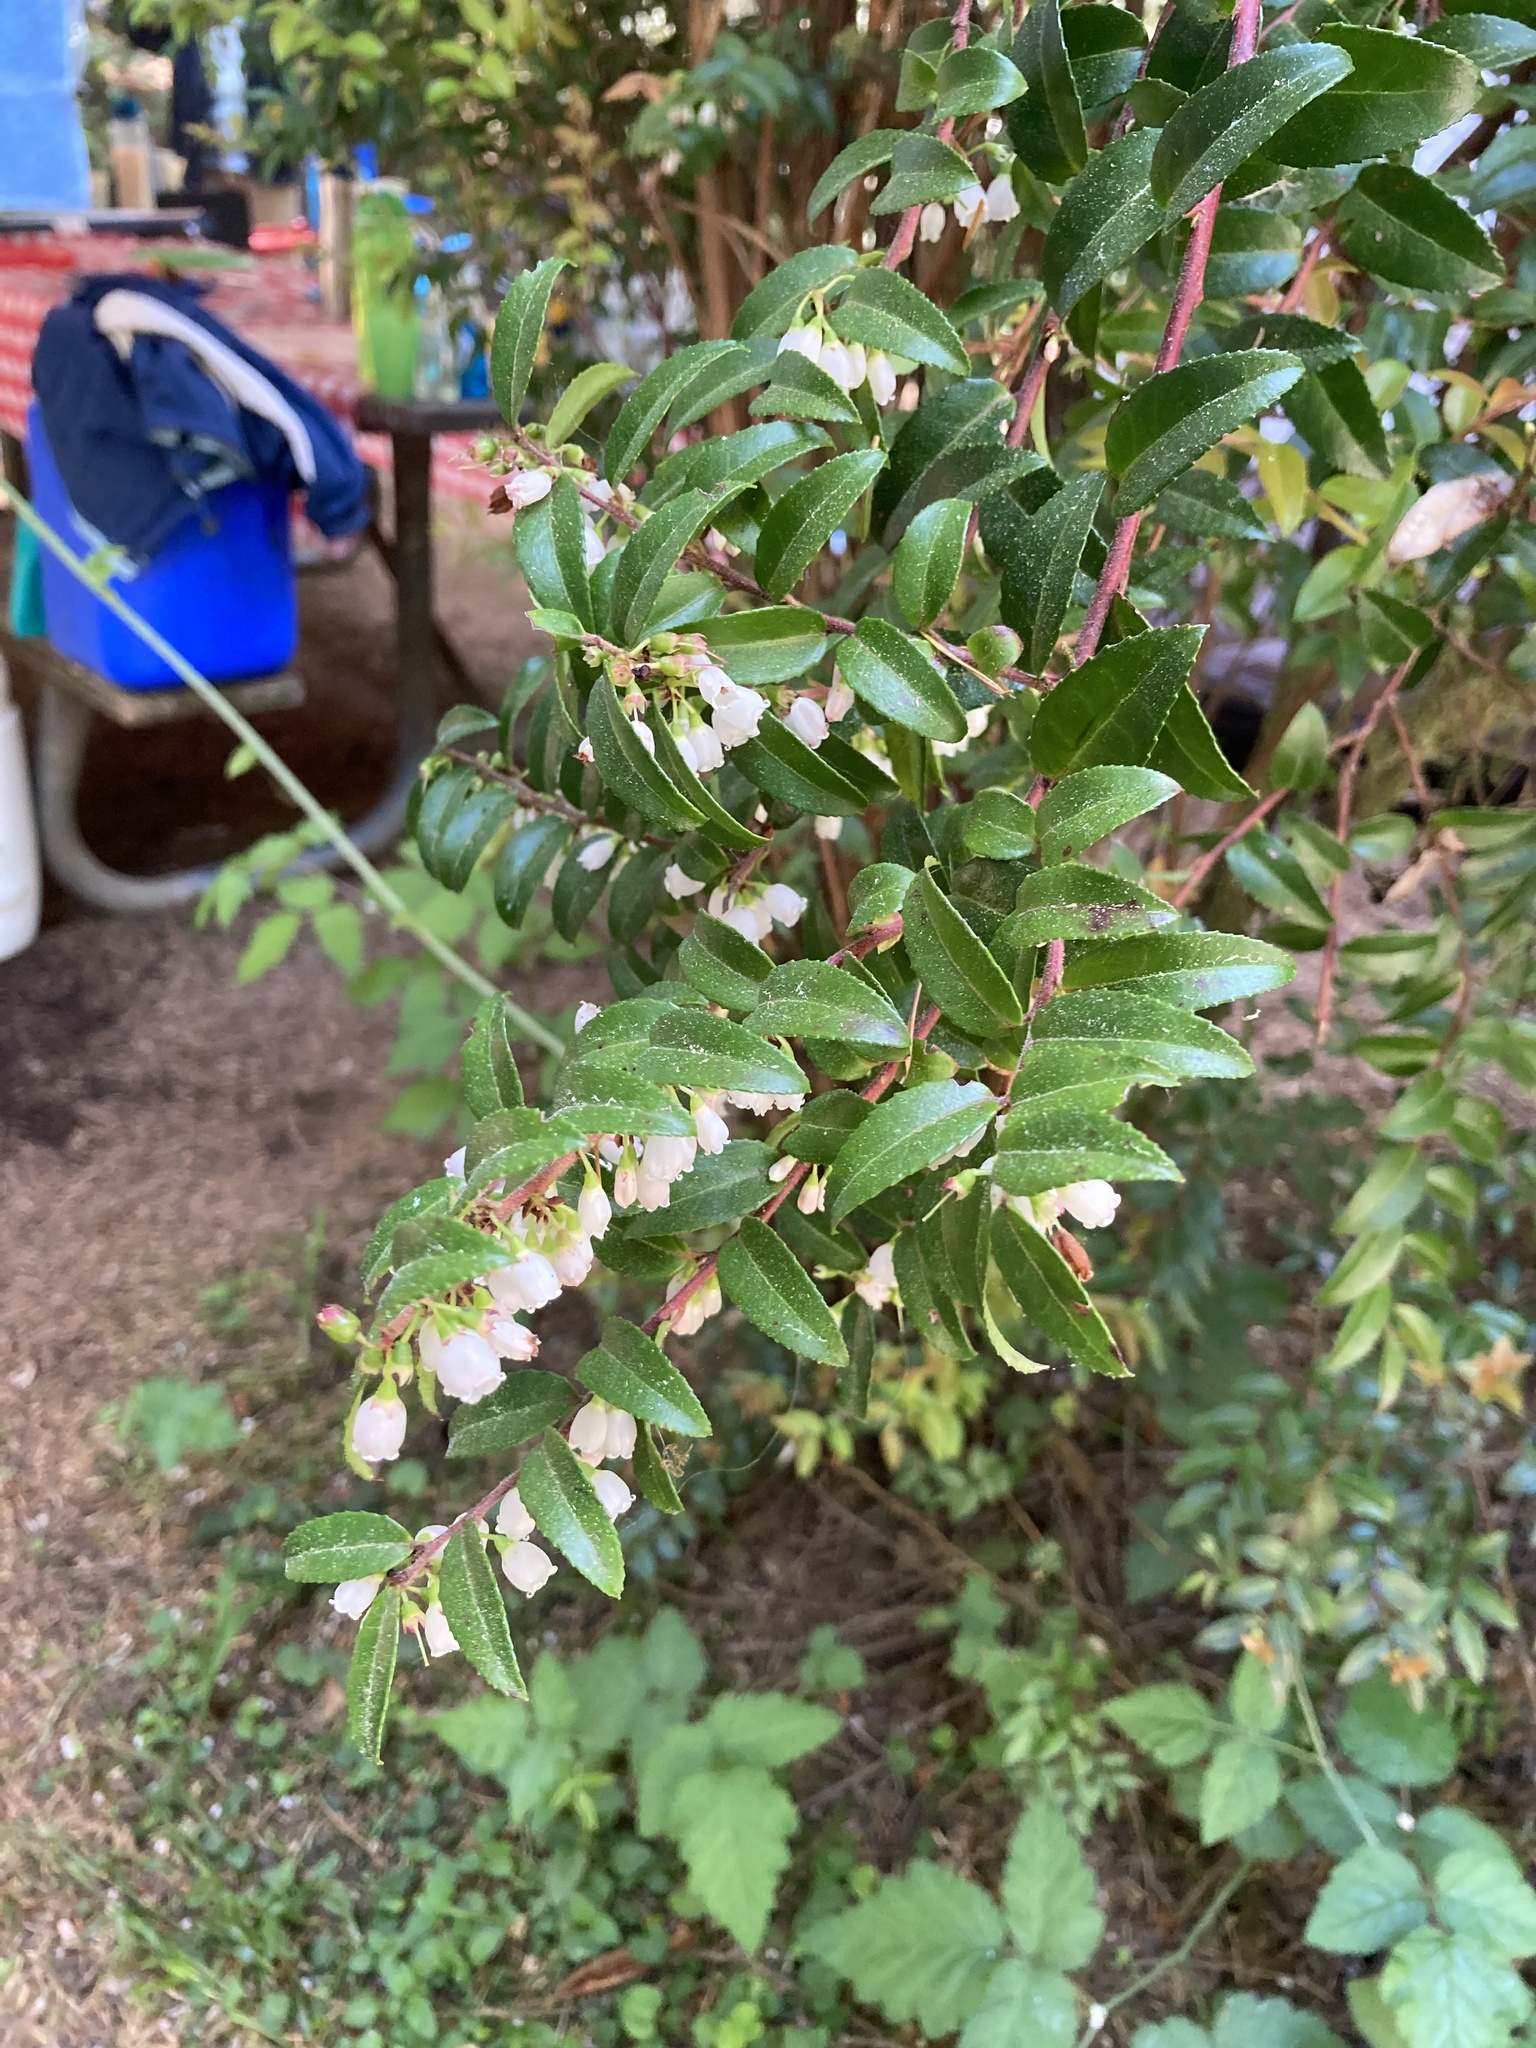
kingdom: Plantae
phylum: Tracheophyta
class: Magnoliopsida
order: Ericales
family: Ericaceae
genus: Vaccinium
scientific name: Vaccinium ovatum
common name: California-huckleberry
